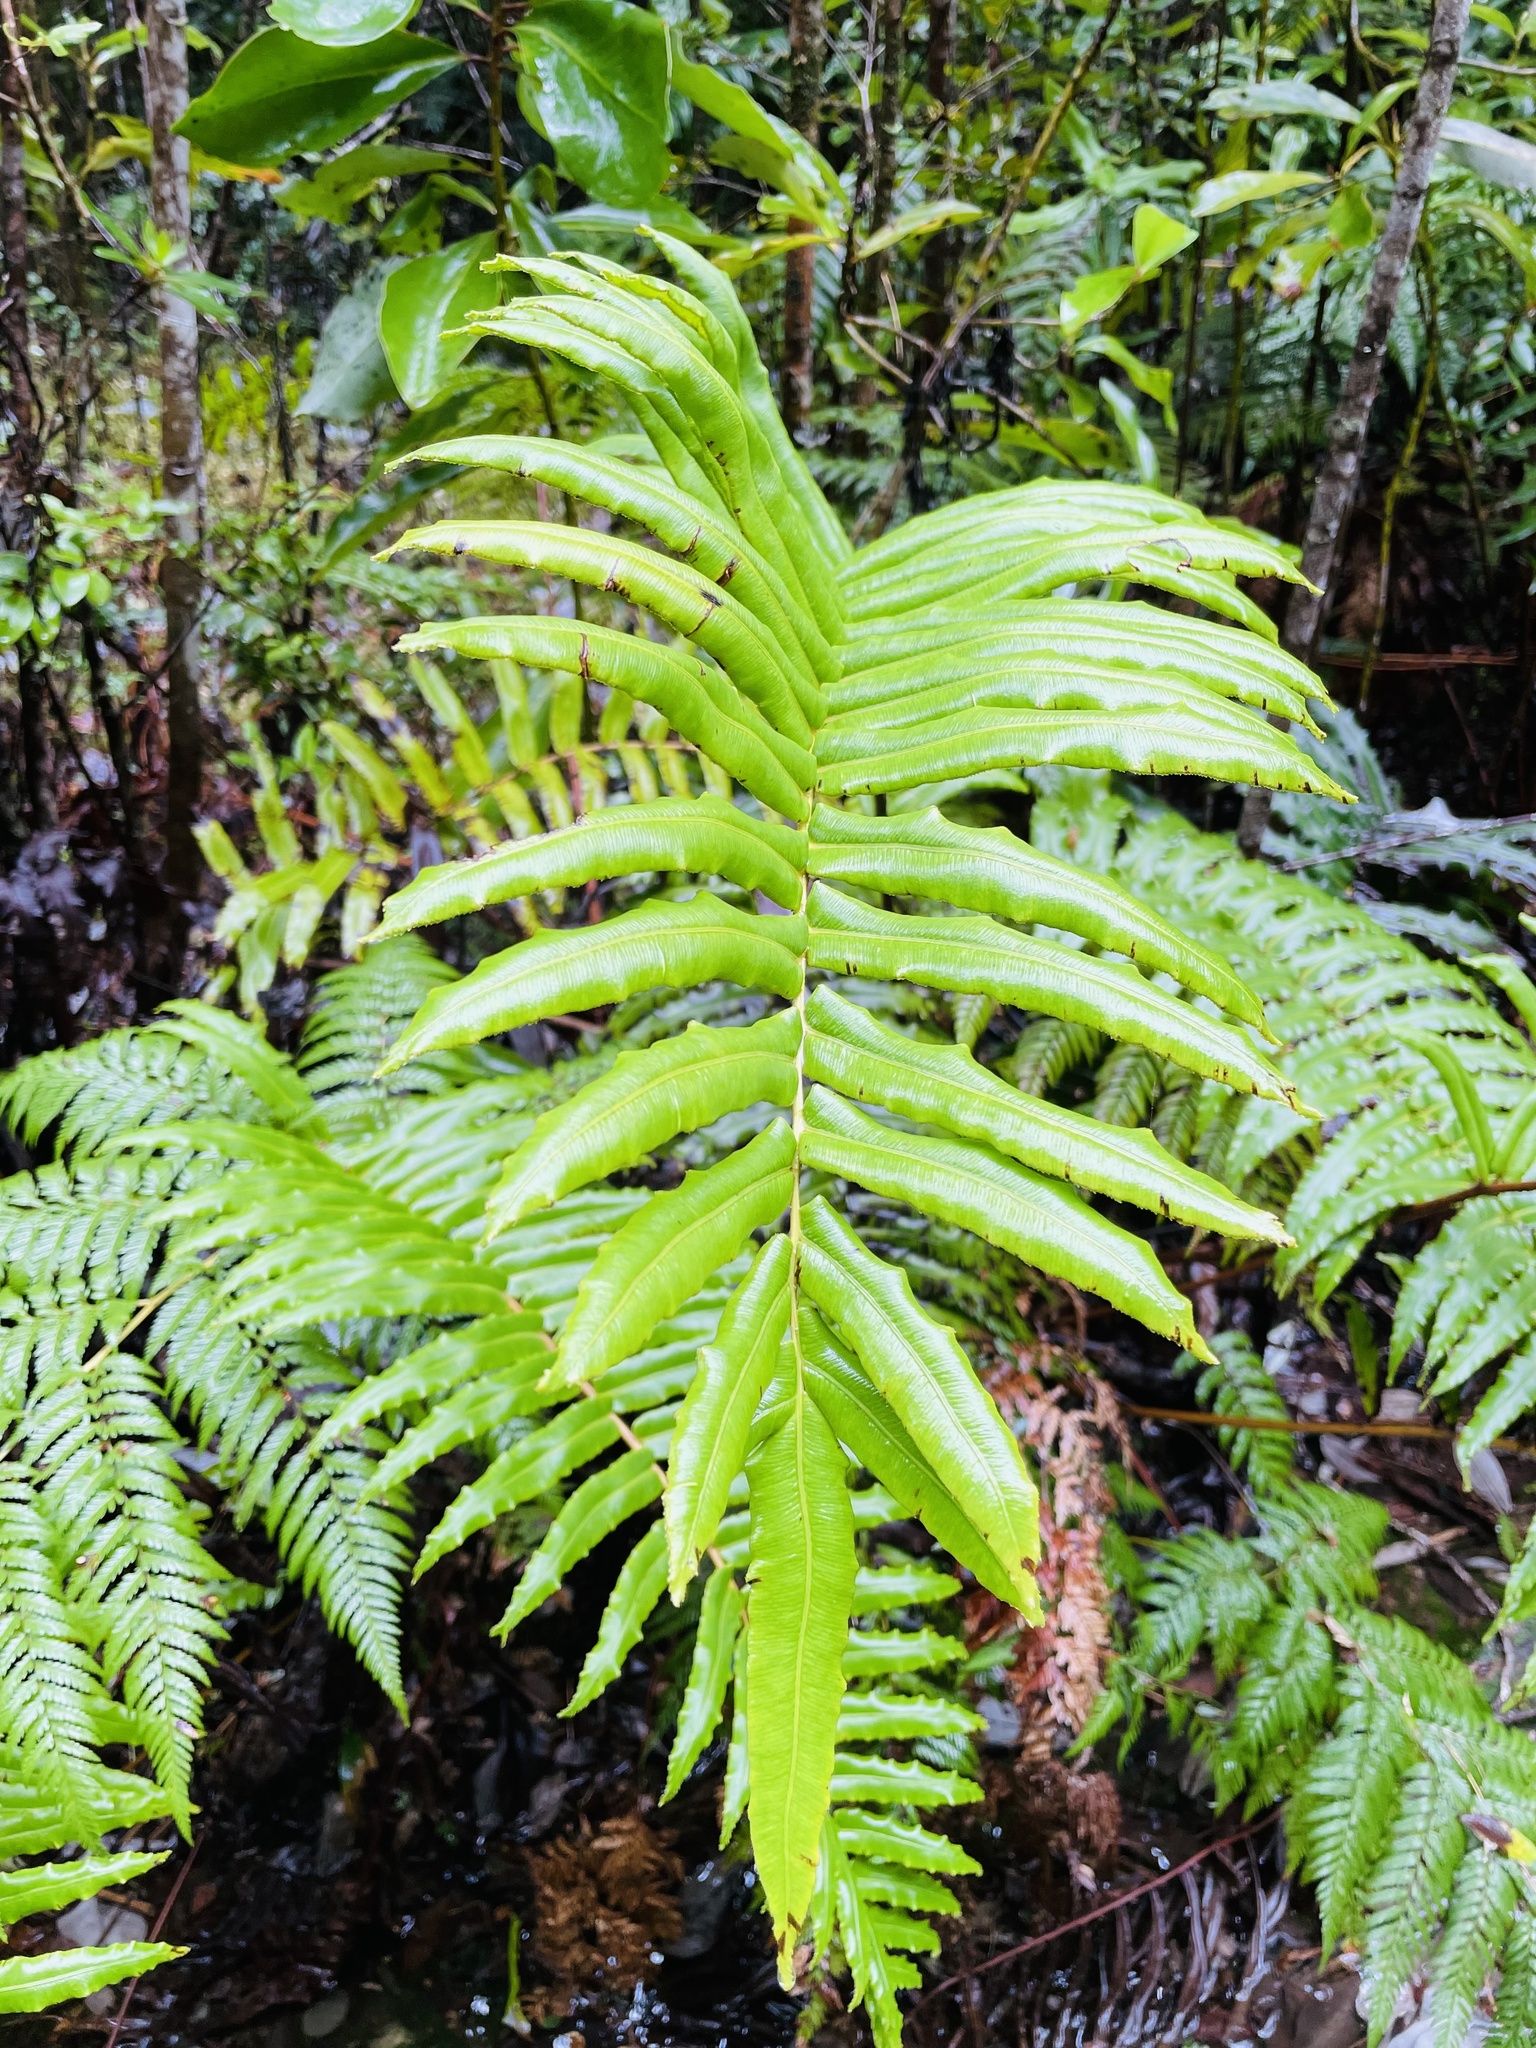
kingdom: Plantae
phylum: Tracheophyta
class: Polypodiopsida
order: Polypodiales
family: Blechnaceae
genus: Parablechnum
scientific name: Parablechnum chilense
